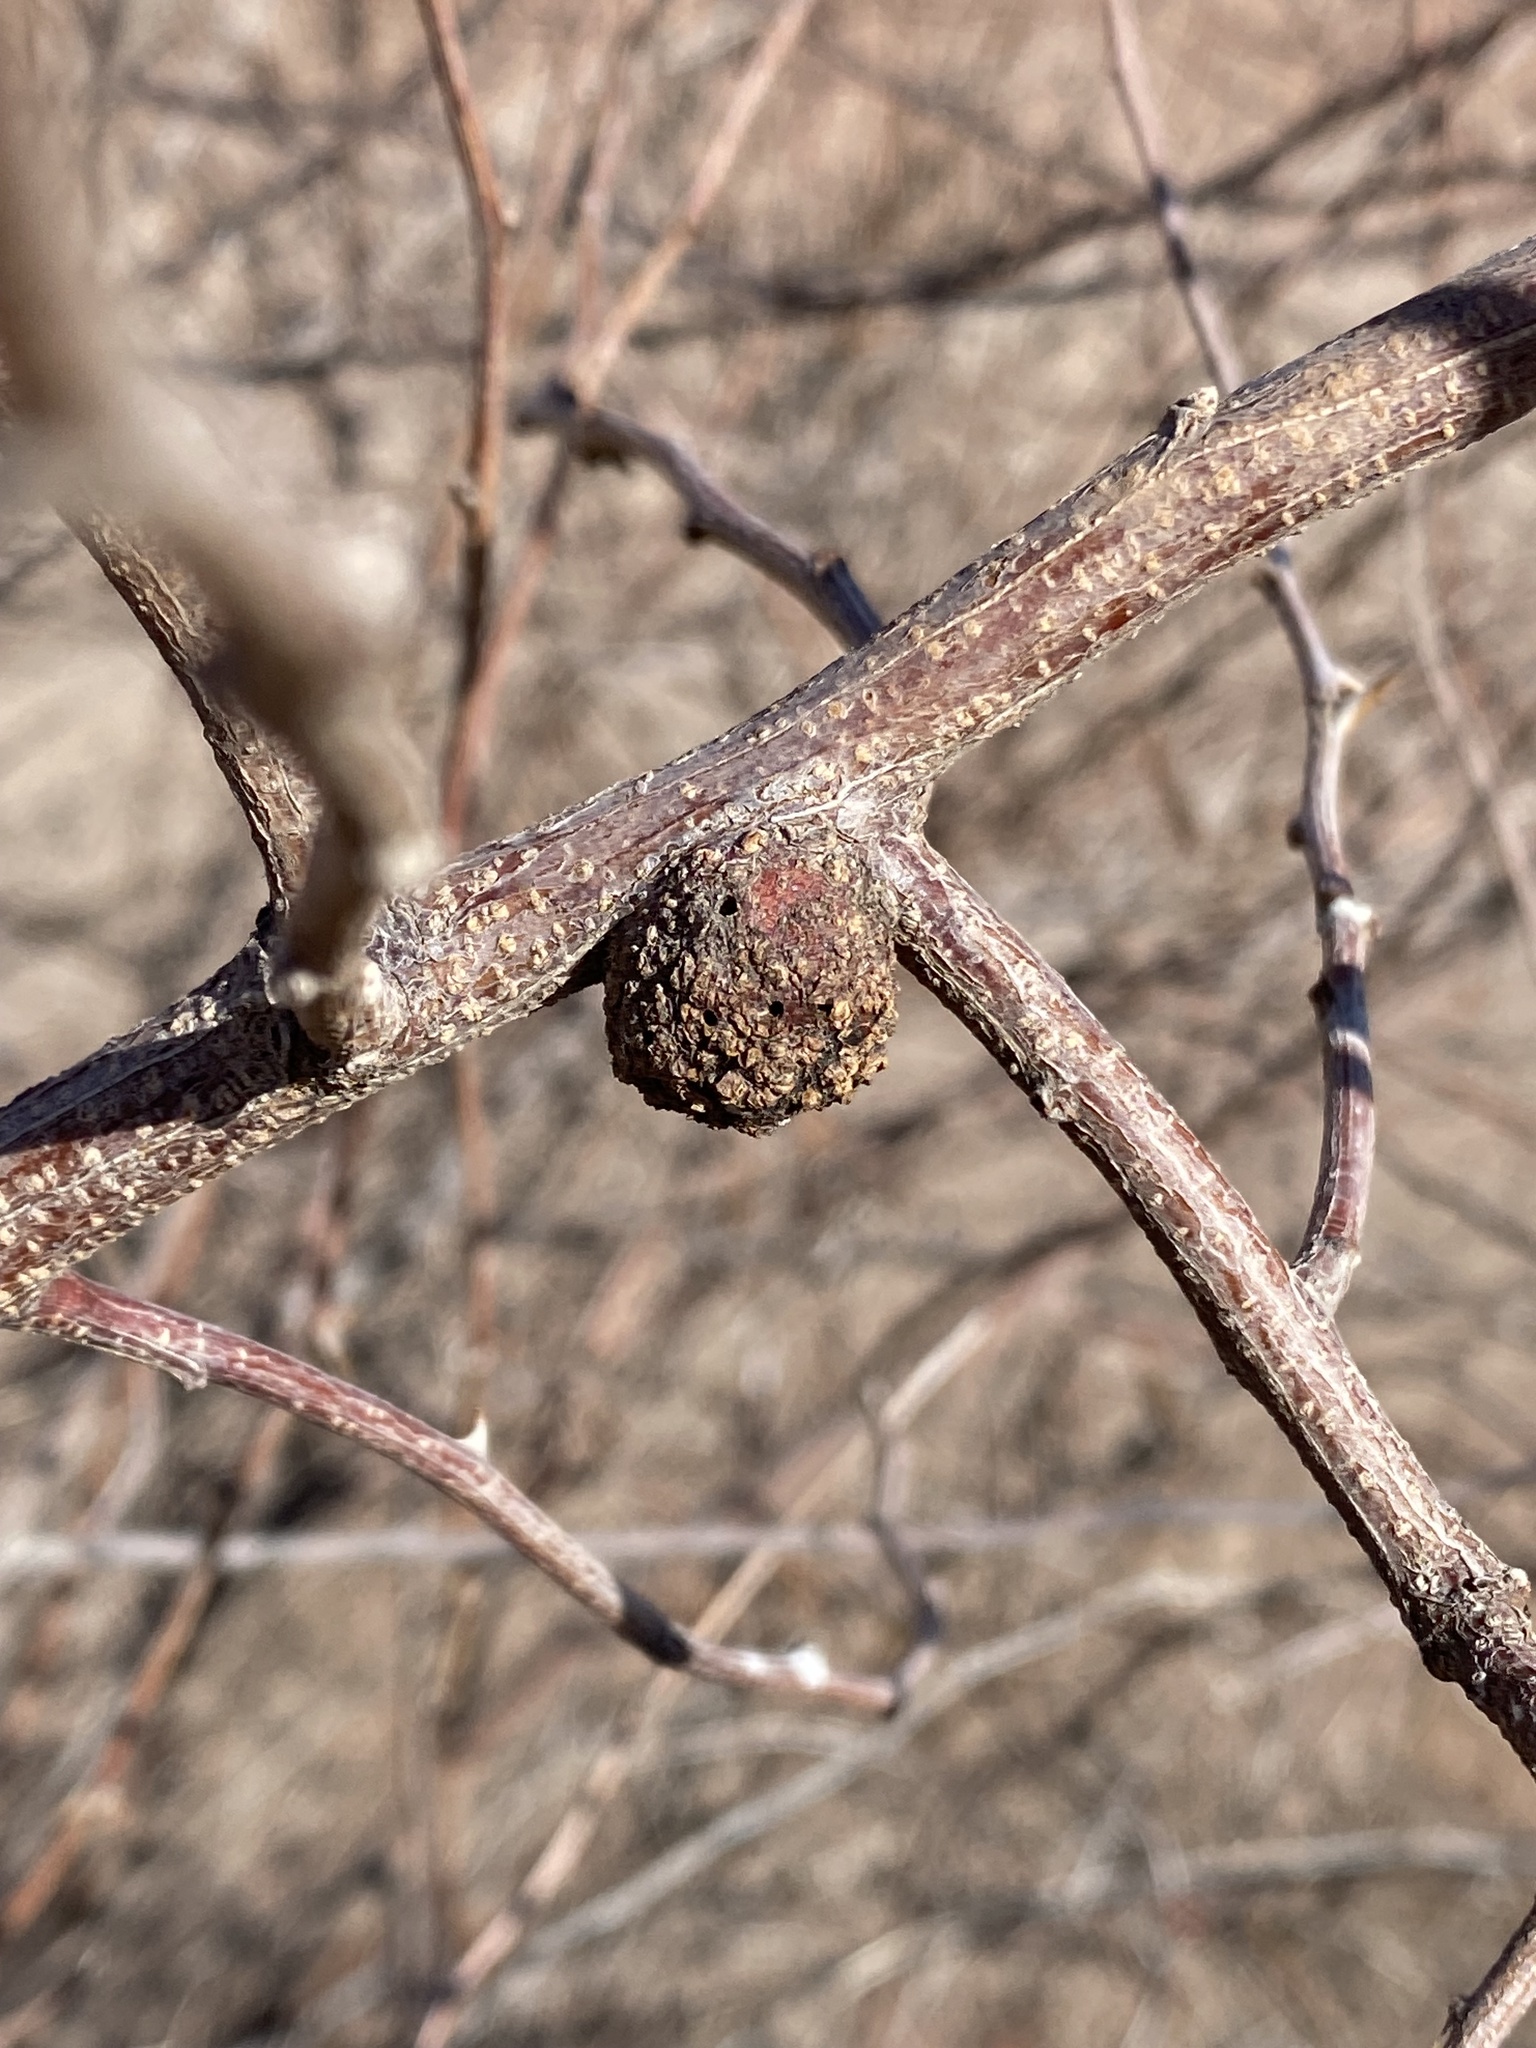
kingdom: Plantae
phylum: Tracheophyta
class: Magnoliopsida
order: Fabales
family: Fabaceae
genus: Mimosa
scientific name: Mimosa aculeaticarpa
